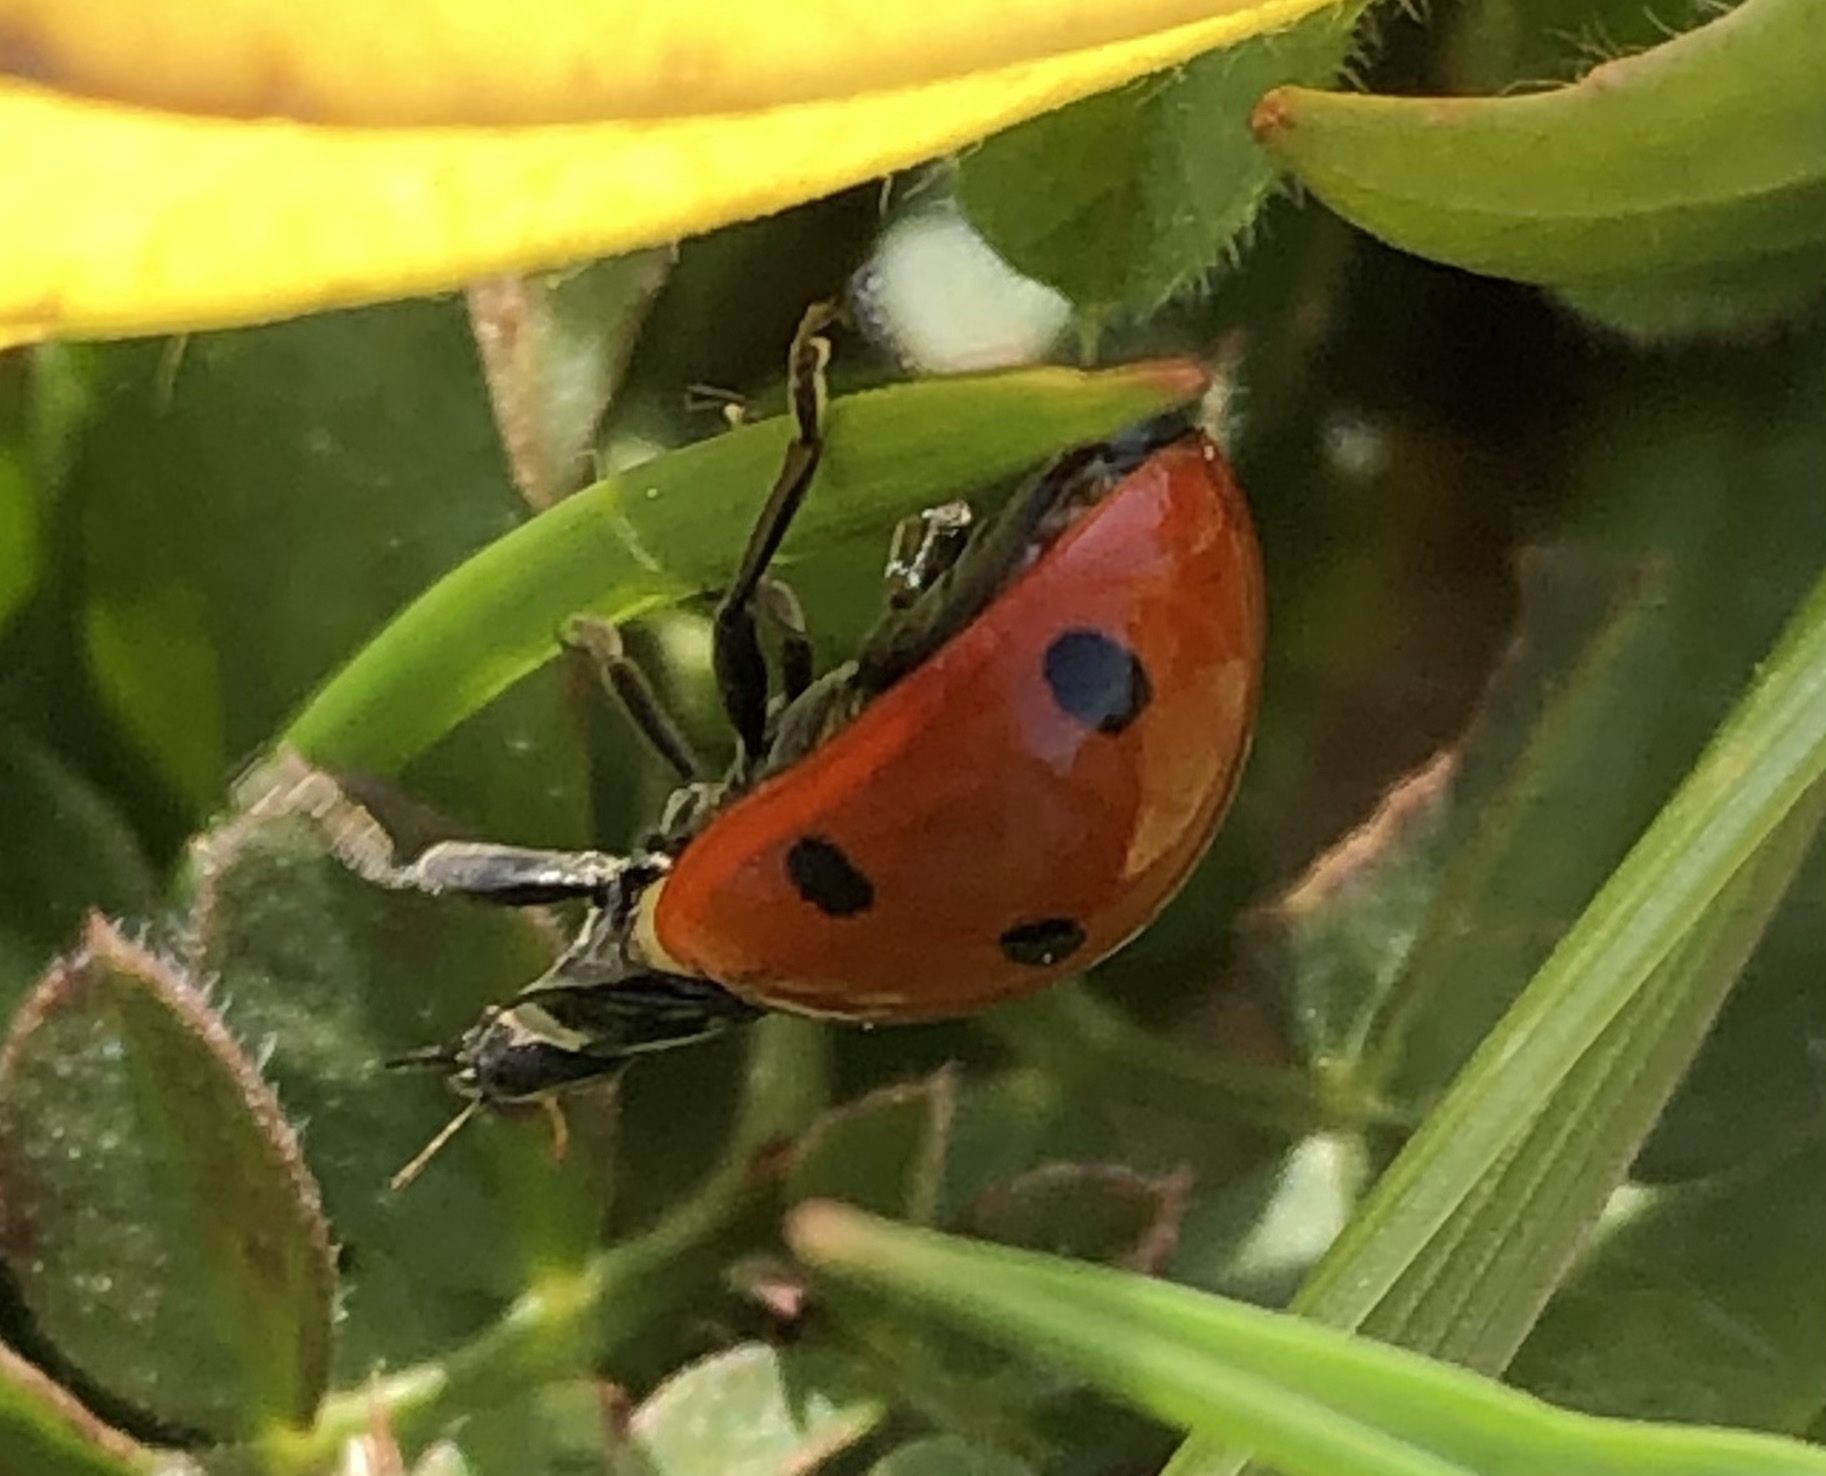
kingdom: Animalia
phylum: Arthropoda
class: Insecta
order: Coleoptera
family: Coccinellidae
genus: Coccinella
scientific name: Coccinella septempunctata
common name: Sevenspotted lady beetle
